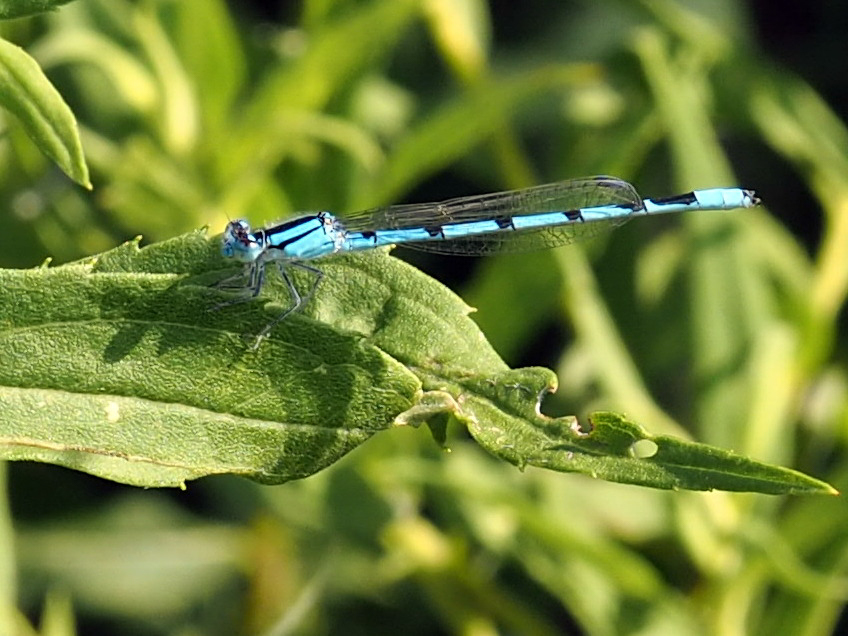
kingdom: Animalia
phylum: Arthropoda
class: Insecta
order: Odonata
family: Coenagrionidae
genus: Enallagma
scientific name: Enallagma civile
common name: Damselfly
